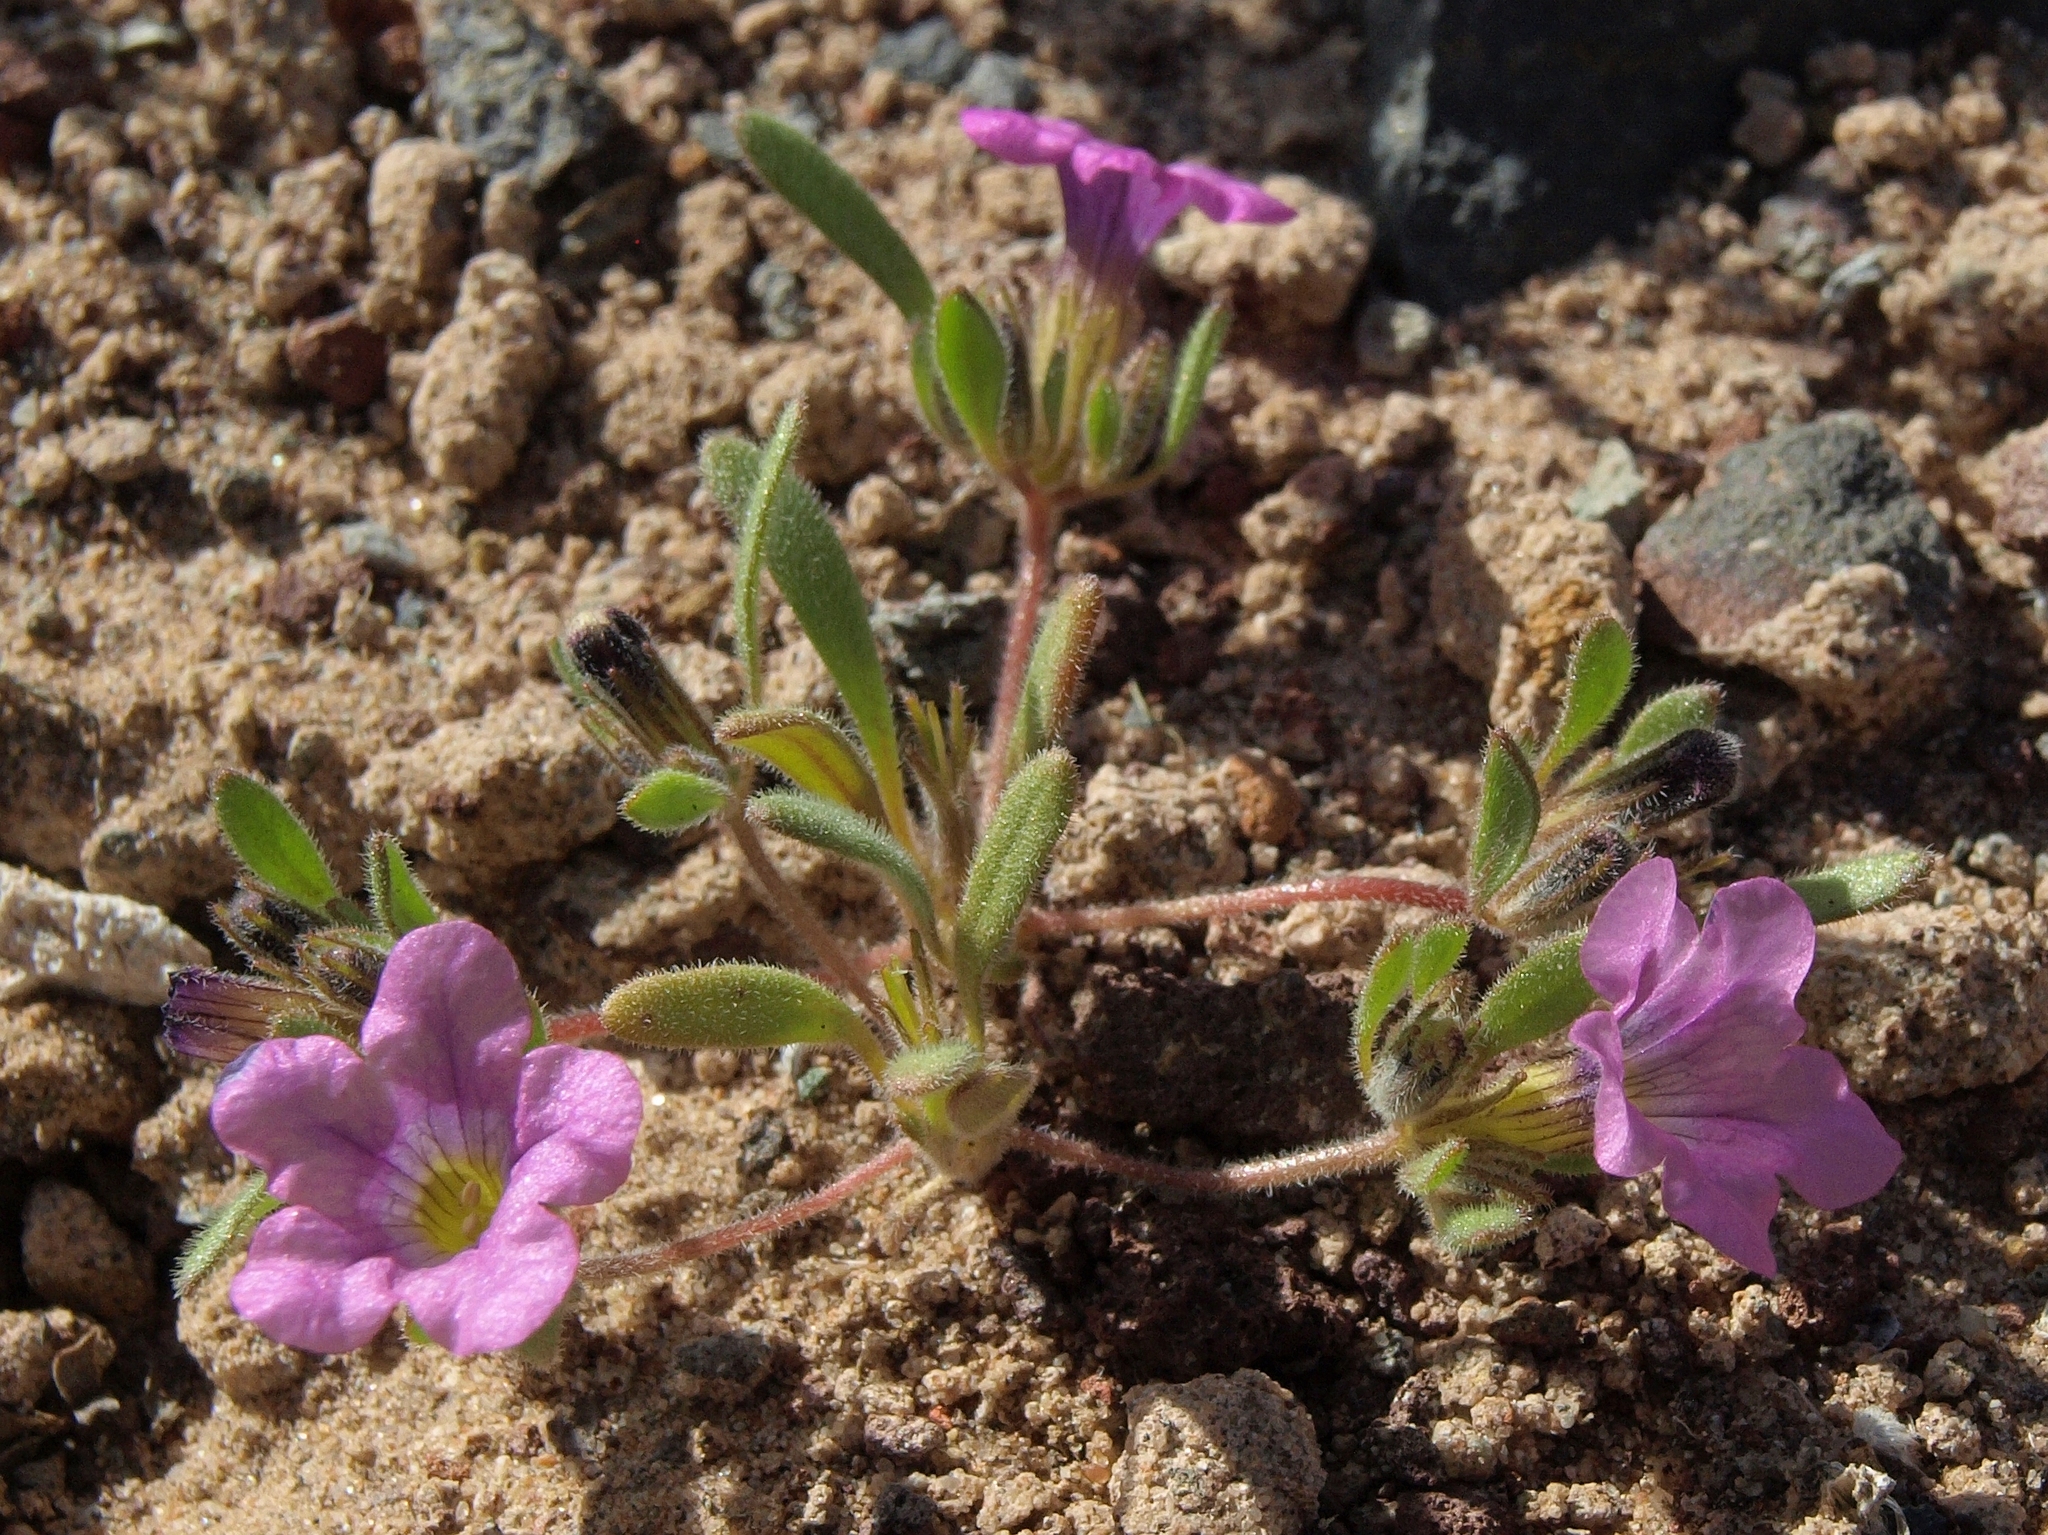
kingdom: Plantae
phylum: Tracheophyta
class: Magnoliopsida
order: Boraginales
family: Namaceae
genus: Nama
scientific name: Nama demissa
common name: Leafy nama
